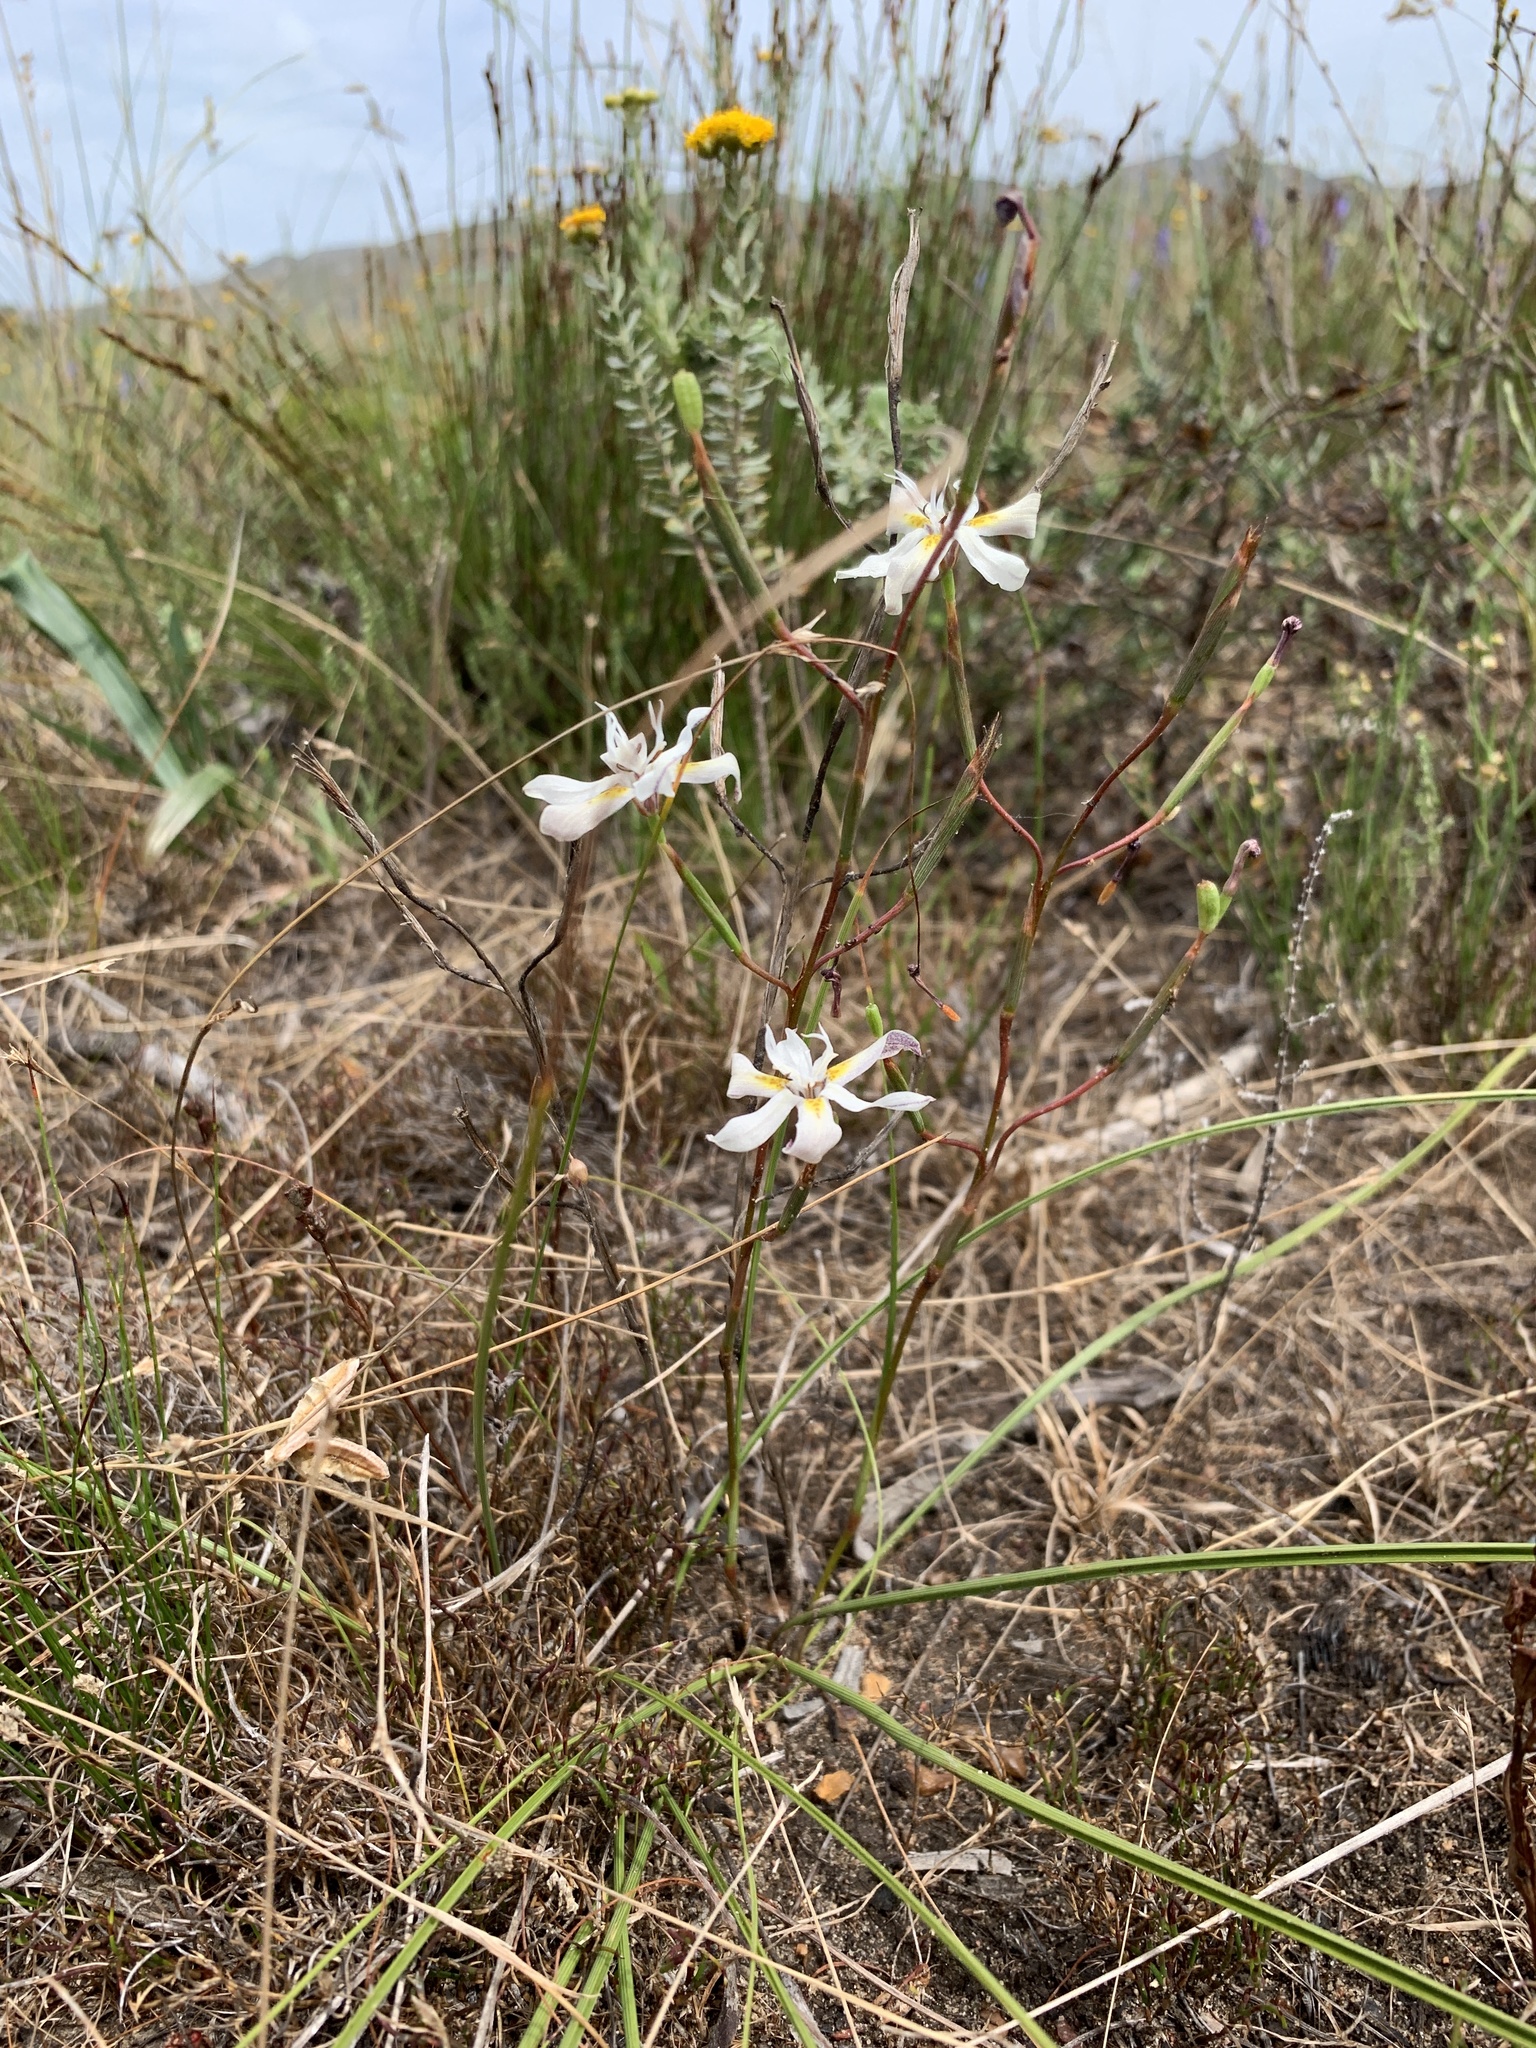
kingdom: Plantae
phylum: Tracheophyta
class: Liliopsida
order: Asparagales
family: Iridaceae
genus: Moraea
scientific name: Moraea viscaria
